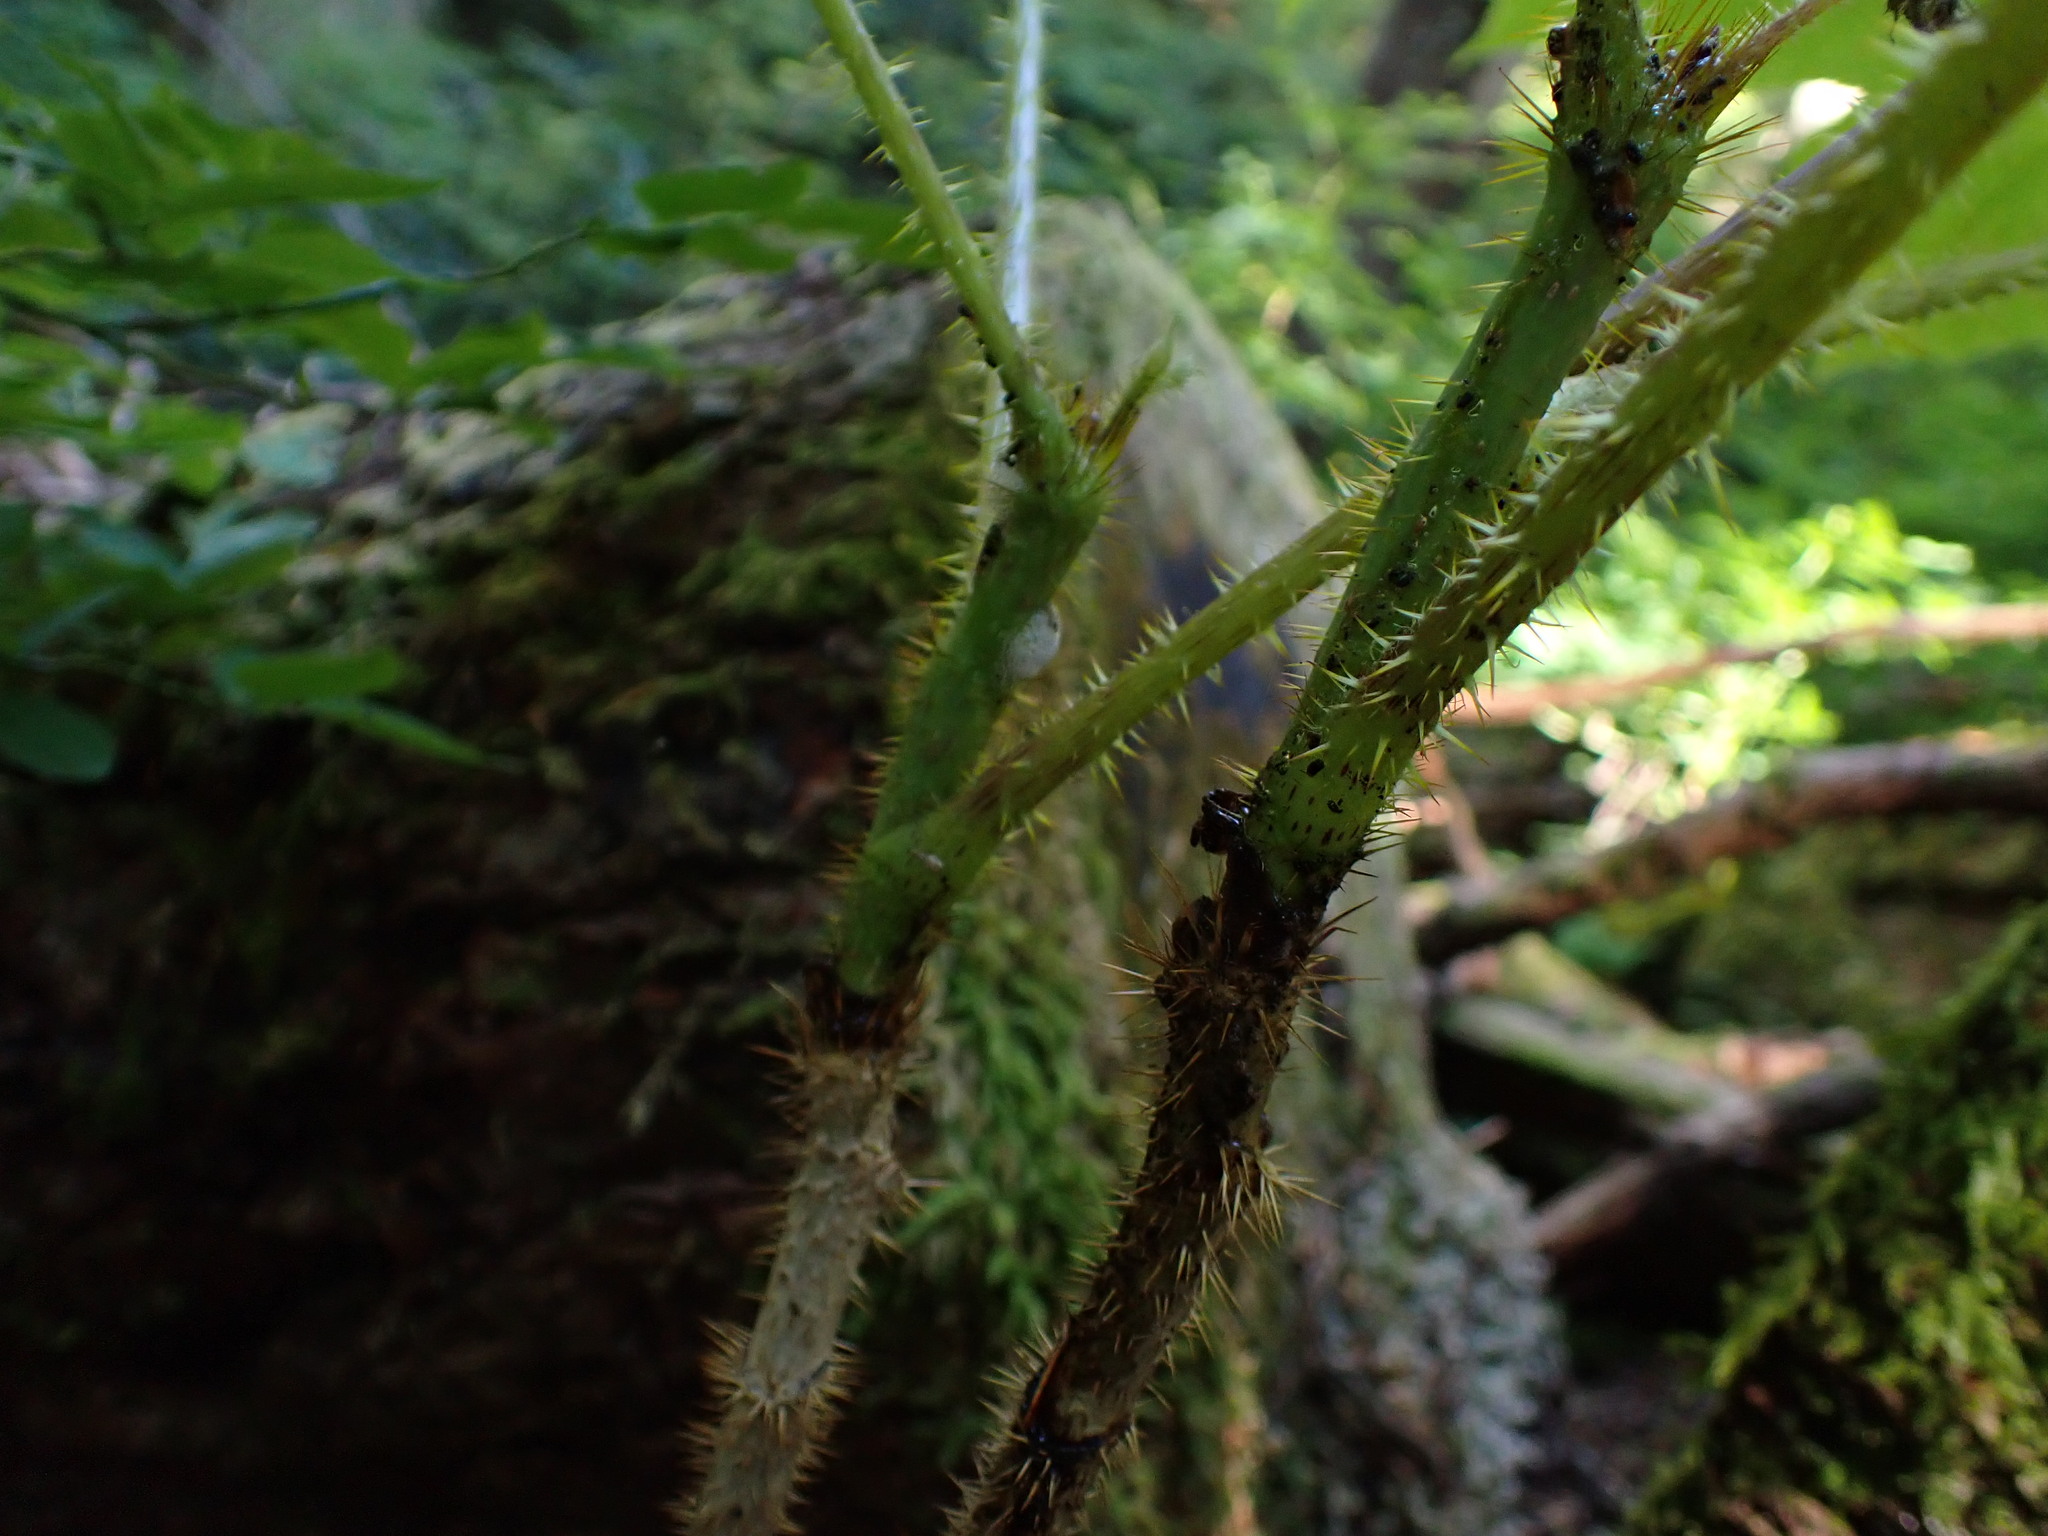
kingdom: Plantae
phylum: Tracheophyta
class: Magnoliopsida
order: Apiales
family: Araliaceae
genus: Oplopanax
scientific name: Oplopanax horridus
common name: Devil's walking-stick
